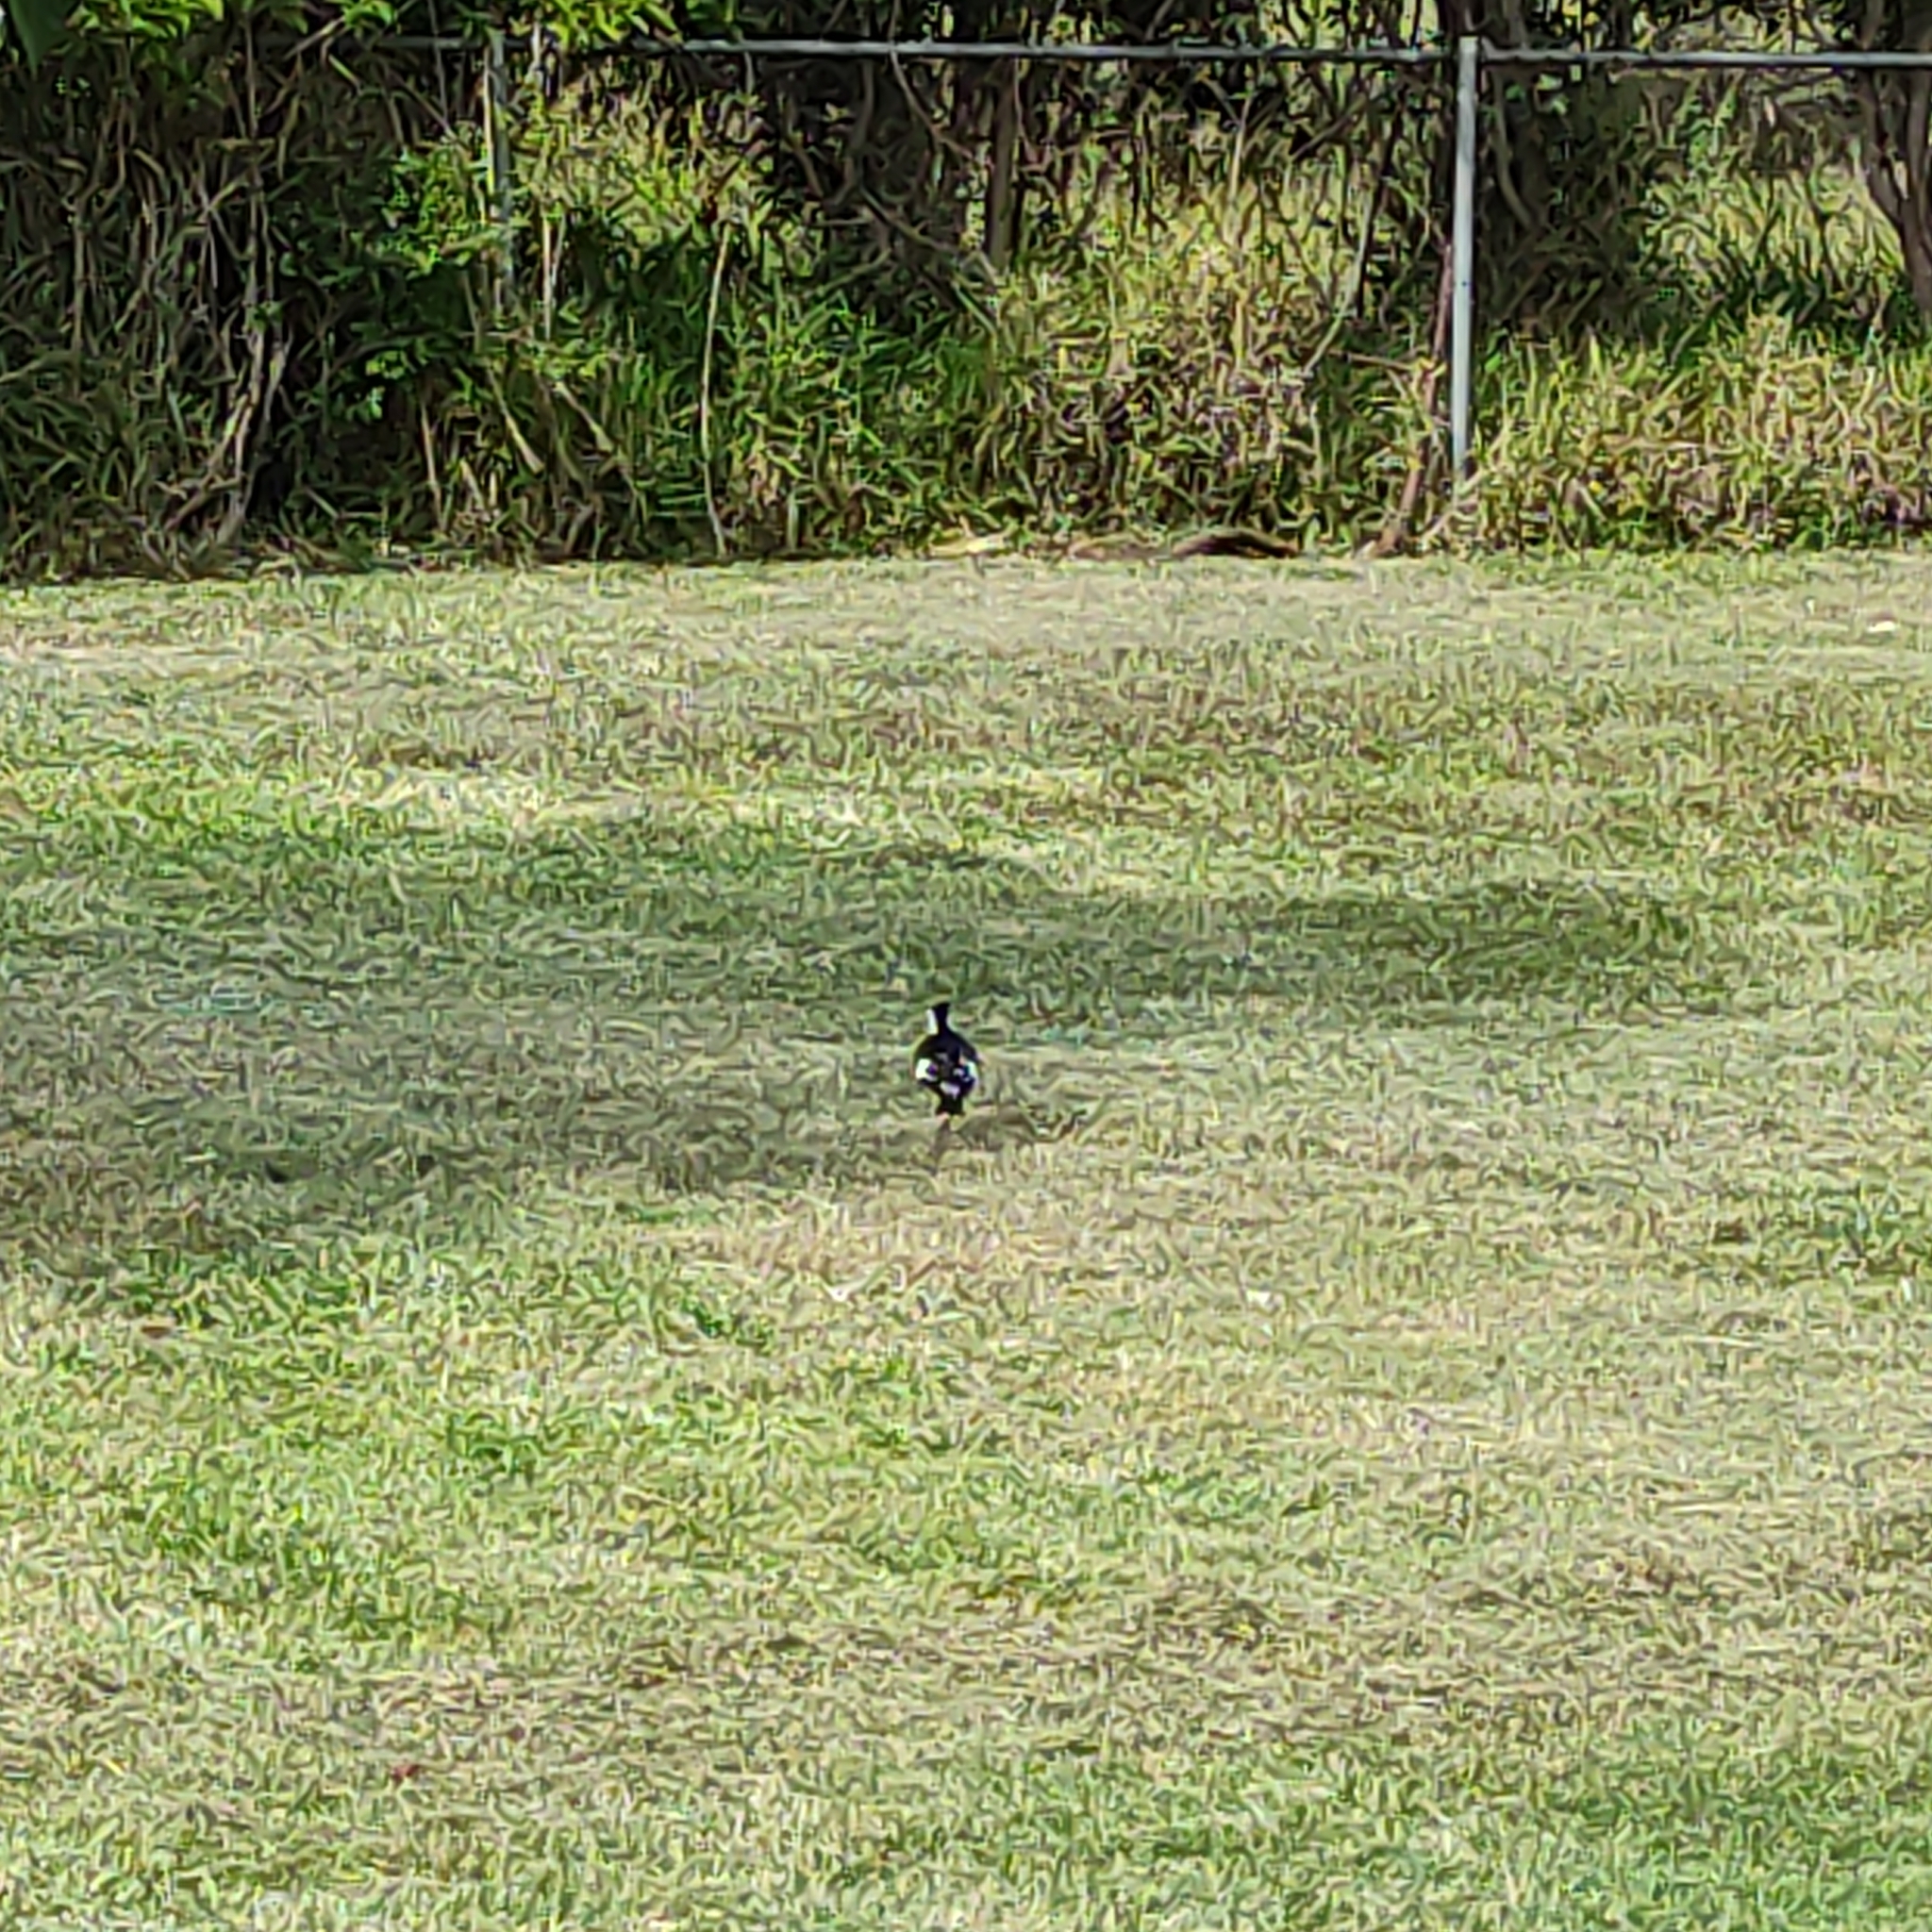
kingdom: Animalia
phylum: Chordata
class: Aves
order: Passeriformes
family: Monarchidae
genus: Grallina
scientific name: Grallina cyanoleuca
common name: Magpie-lark
